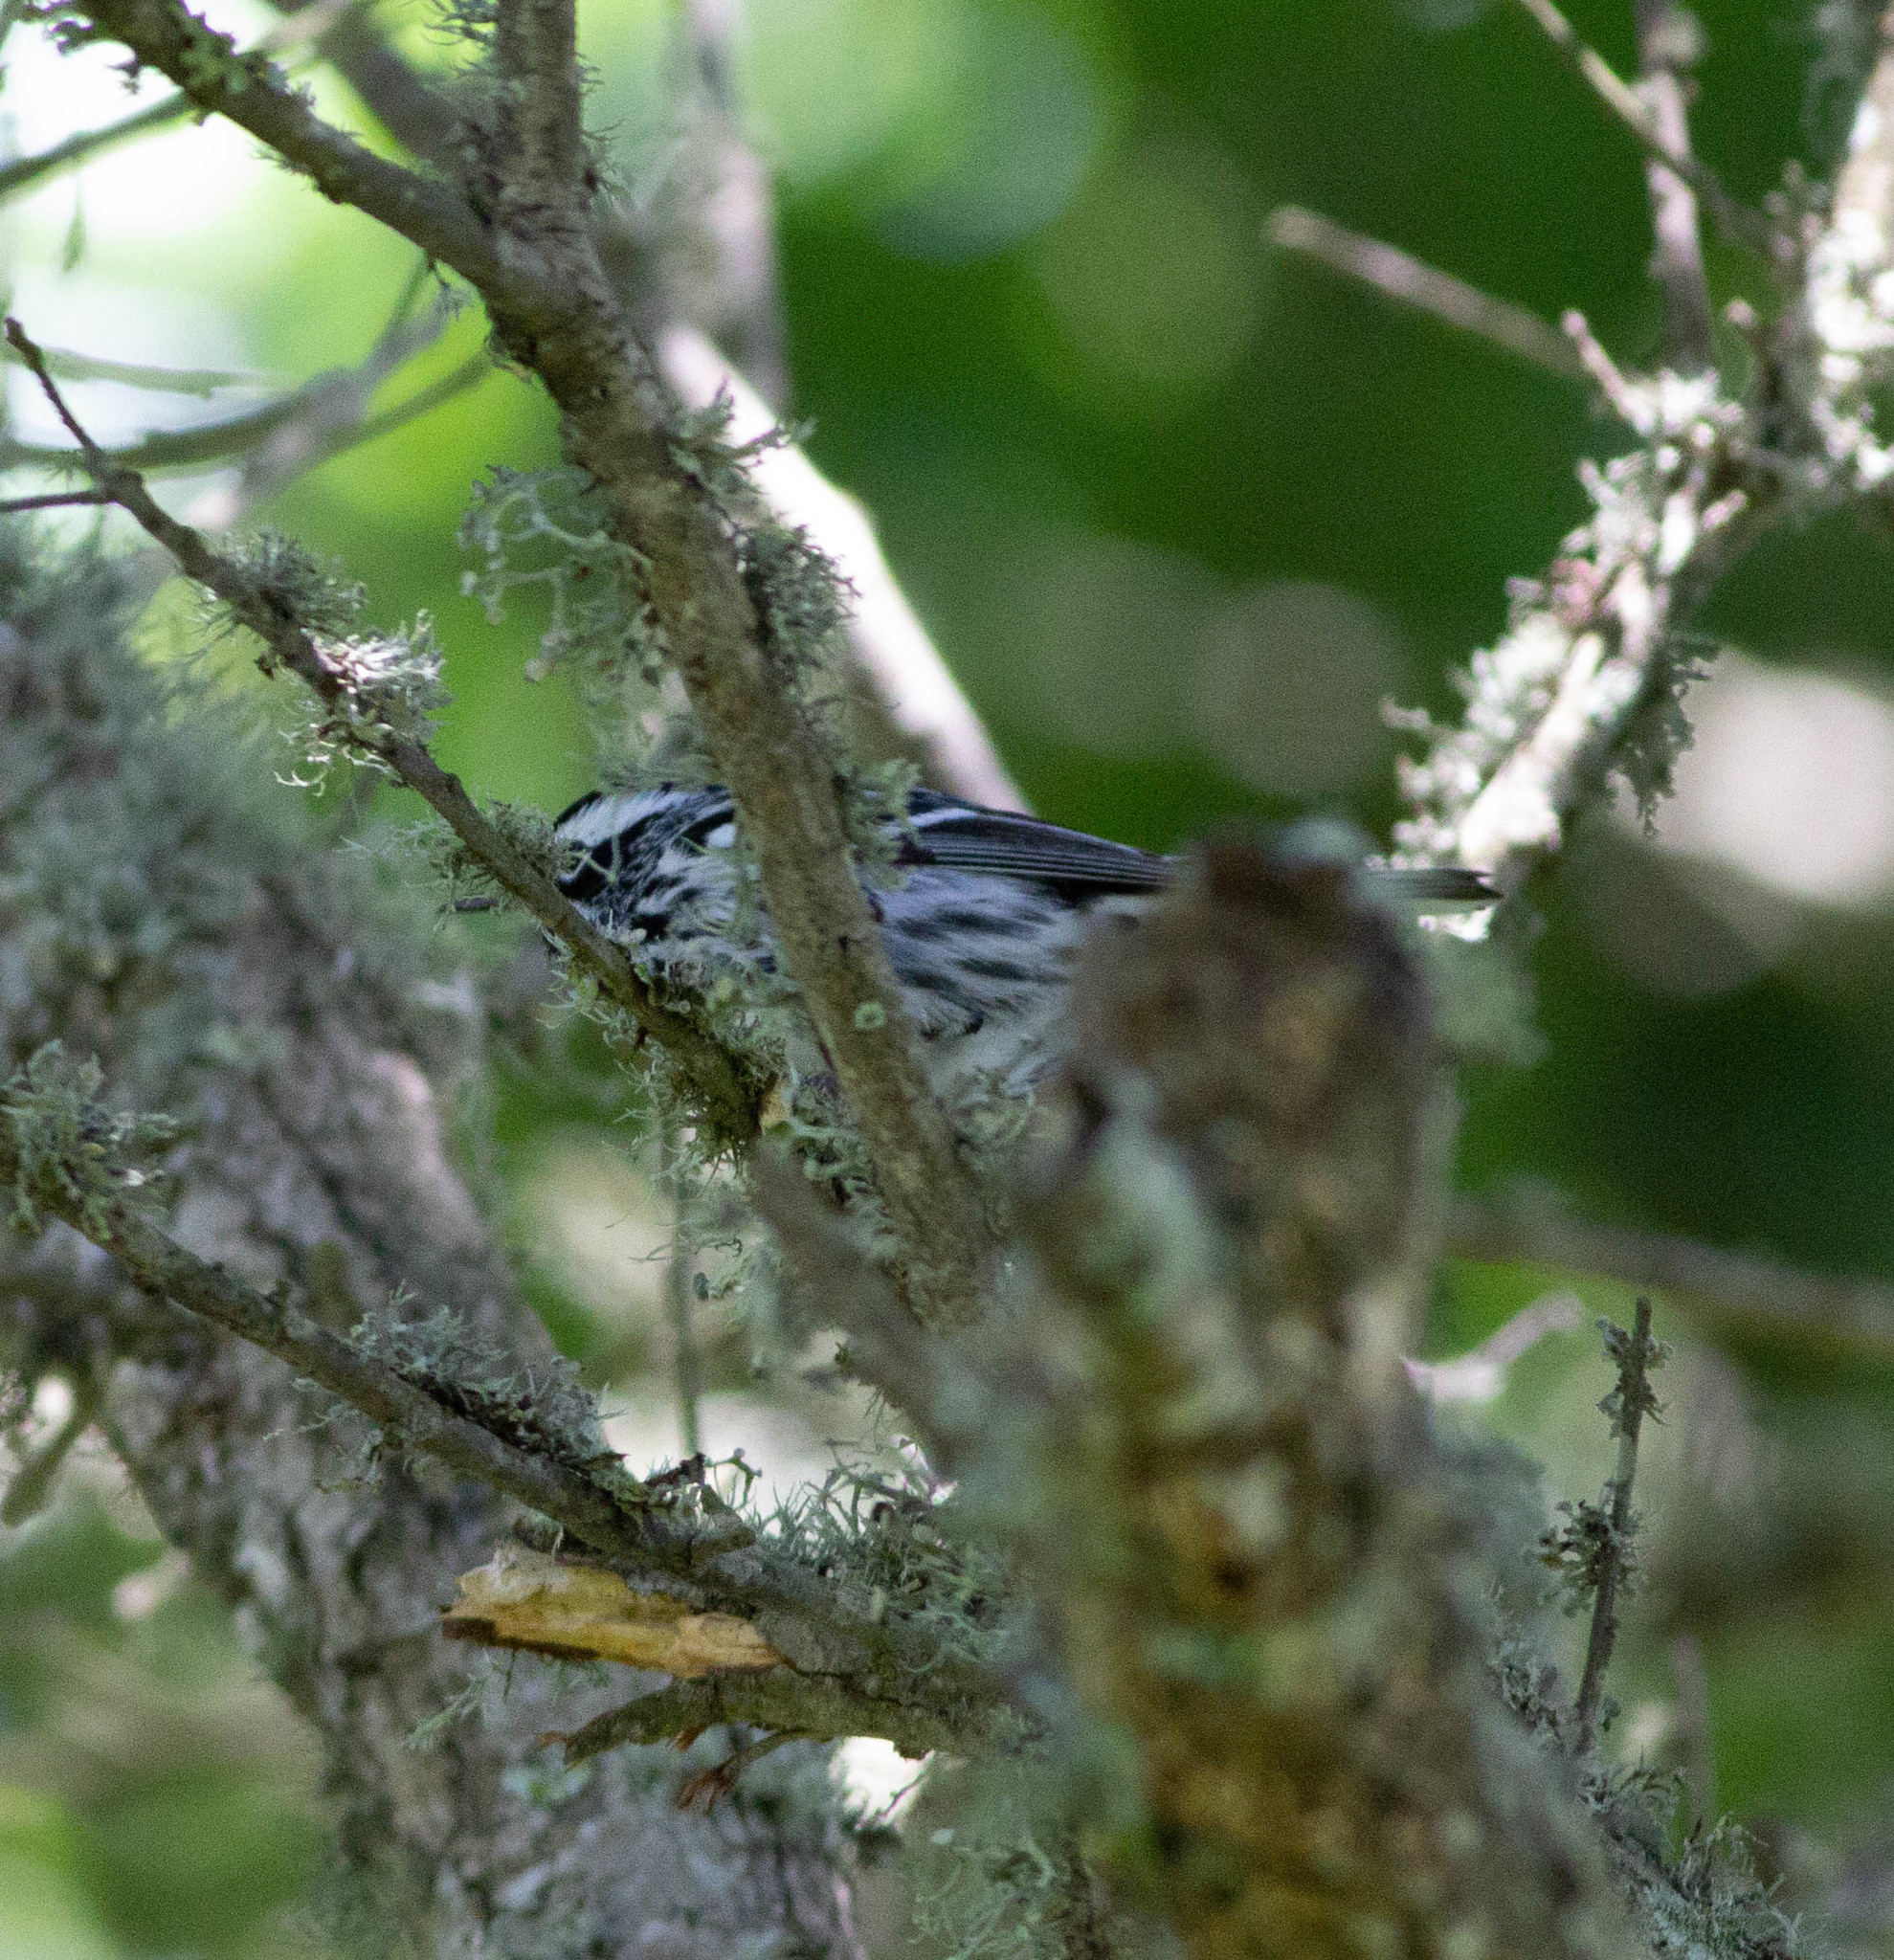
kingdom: Animalia
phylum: Chordata
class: Aves
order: Passeriformes
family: Parulidae
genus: Mniotilta
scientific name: Mniotilta varia
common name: Black-and-white warbler
